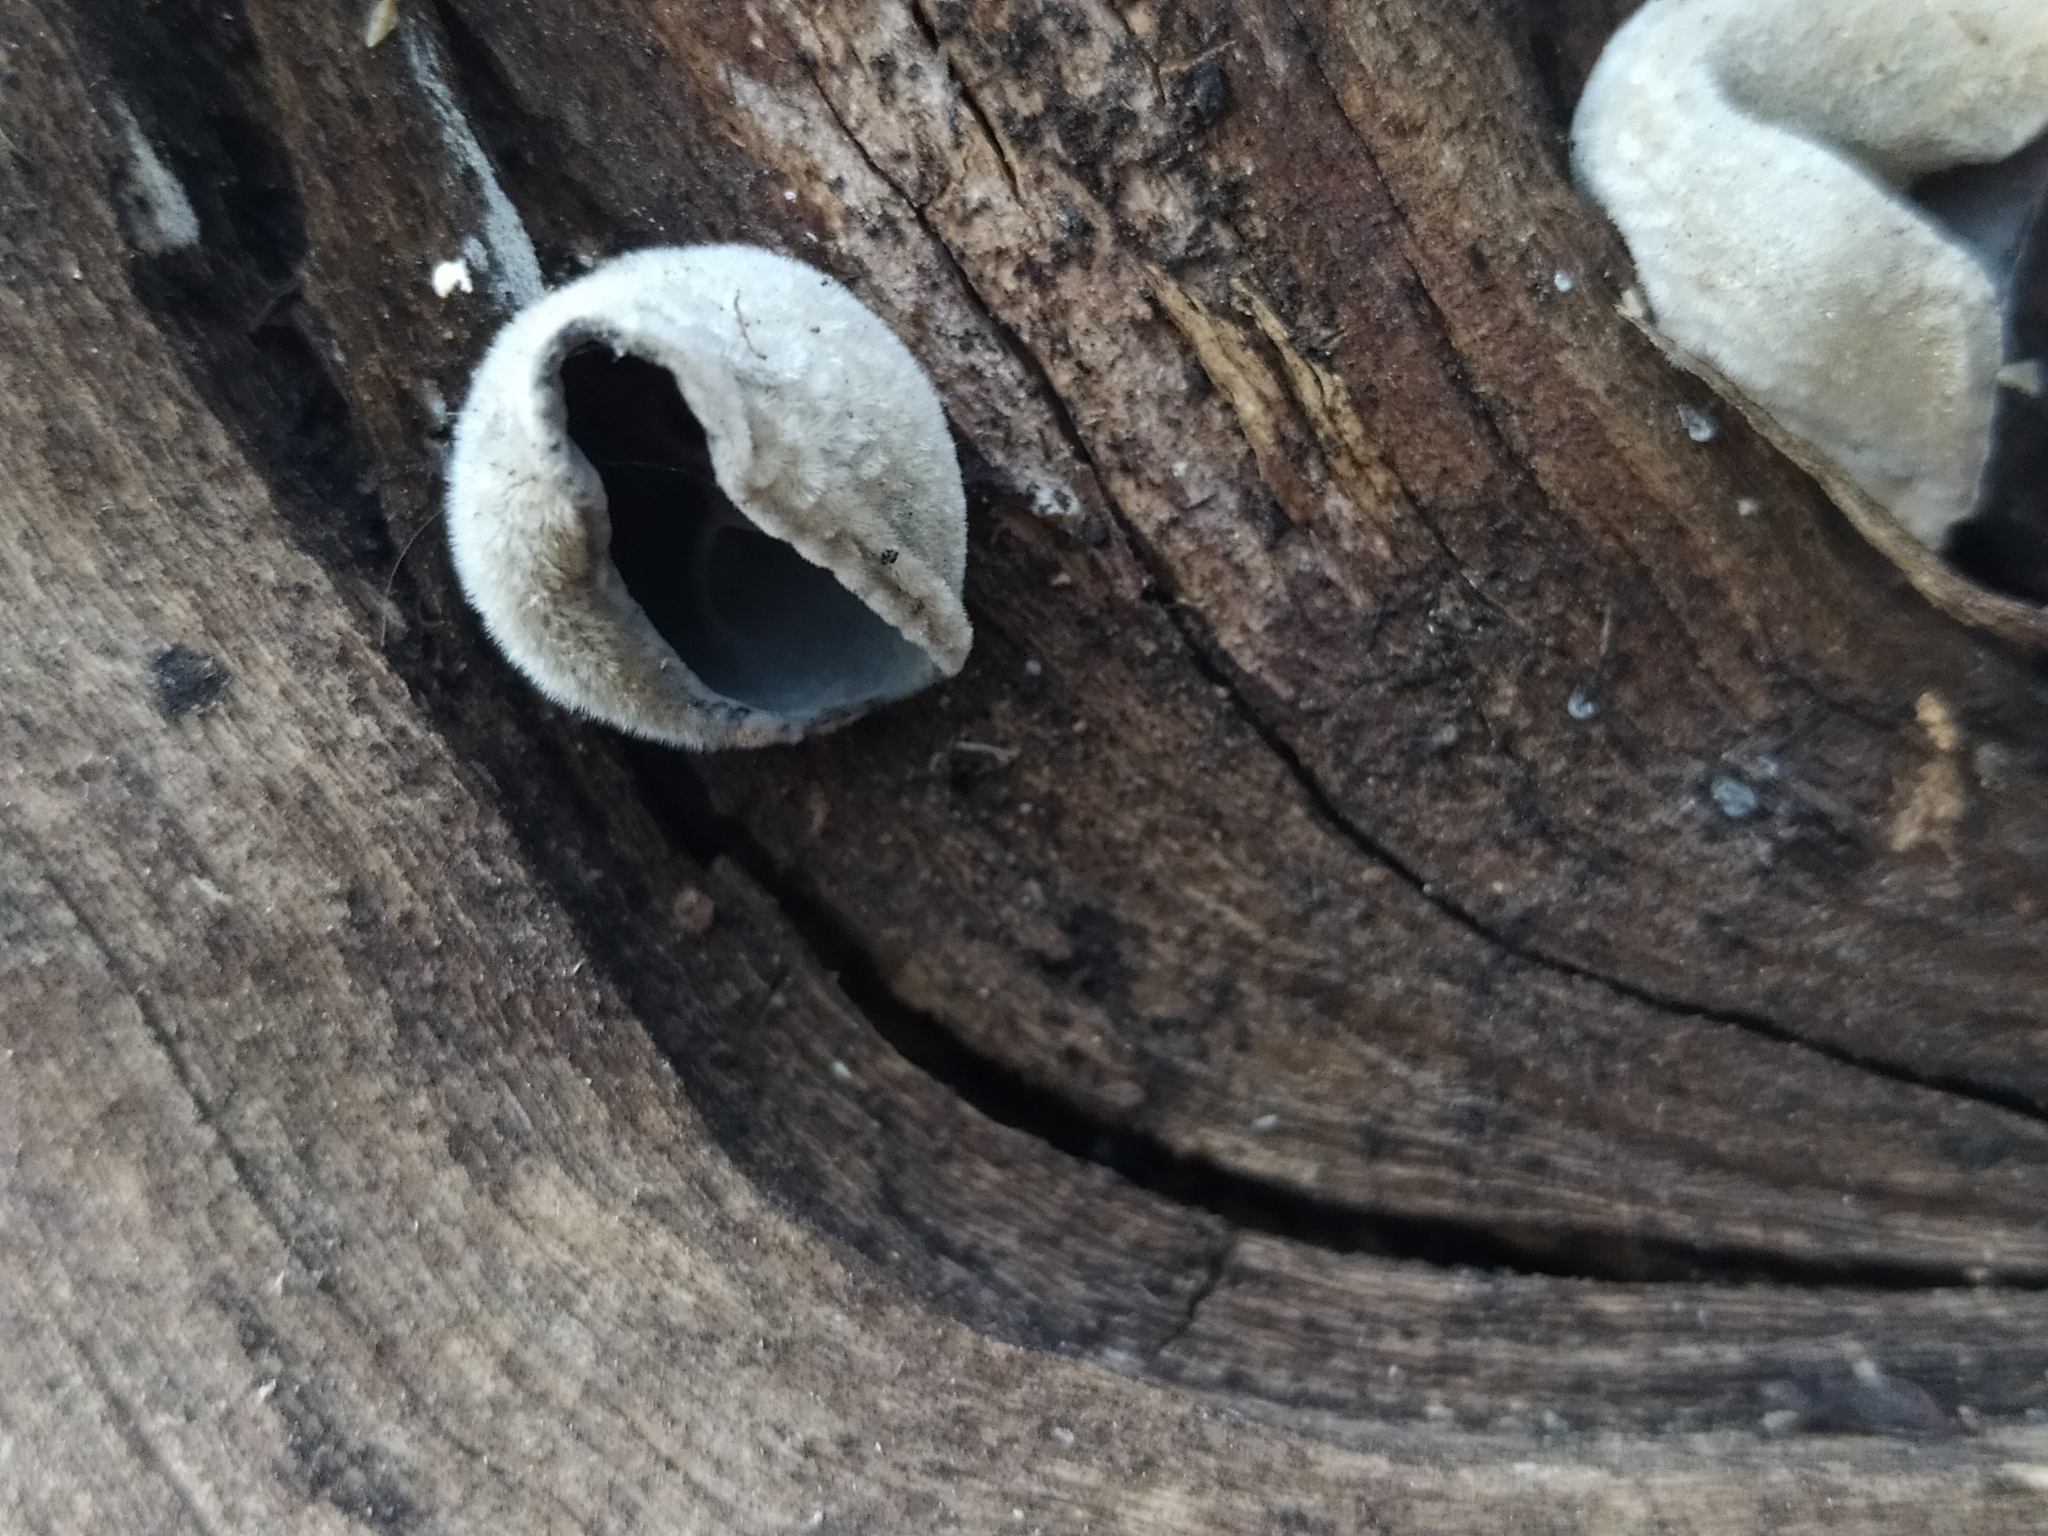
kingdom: Fungi
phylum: Basidiomycota
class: Agaricomycetes
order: Auriculariales
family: Auriculariaceae
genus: Auricularia
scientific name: Auricularia nigricans
